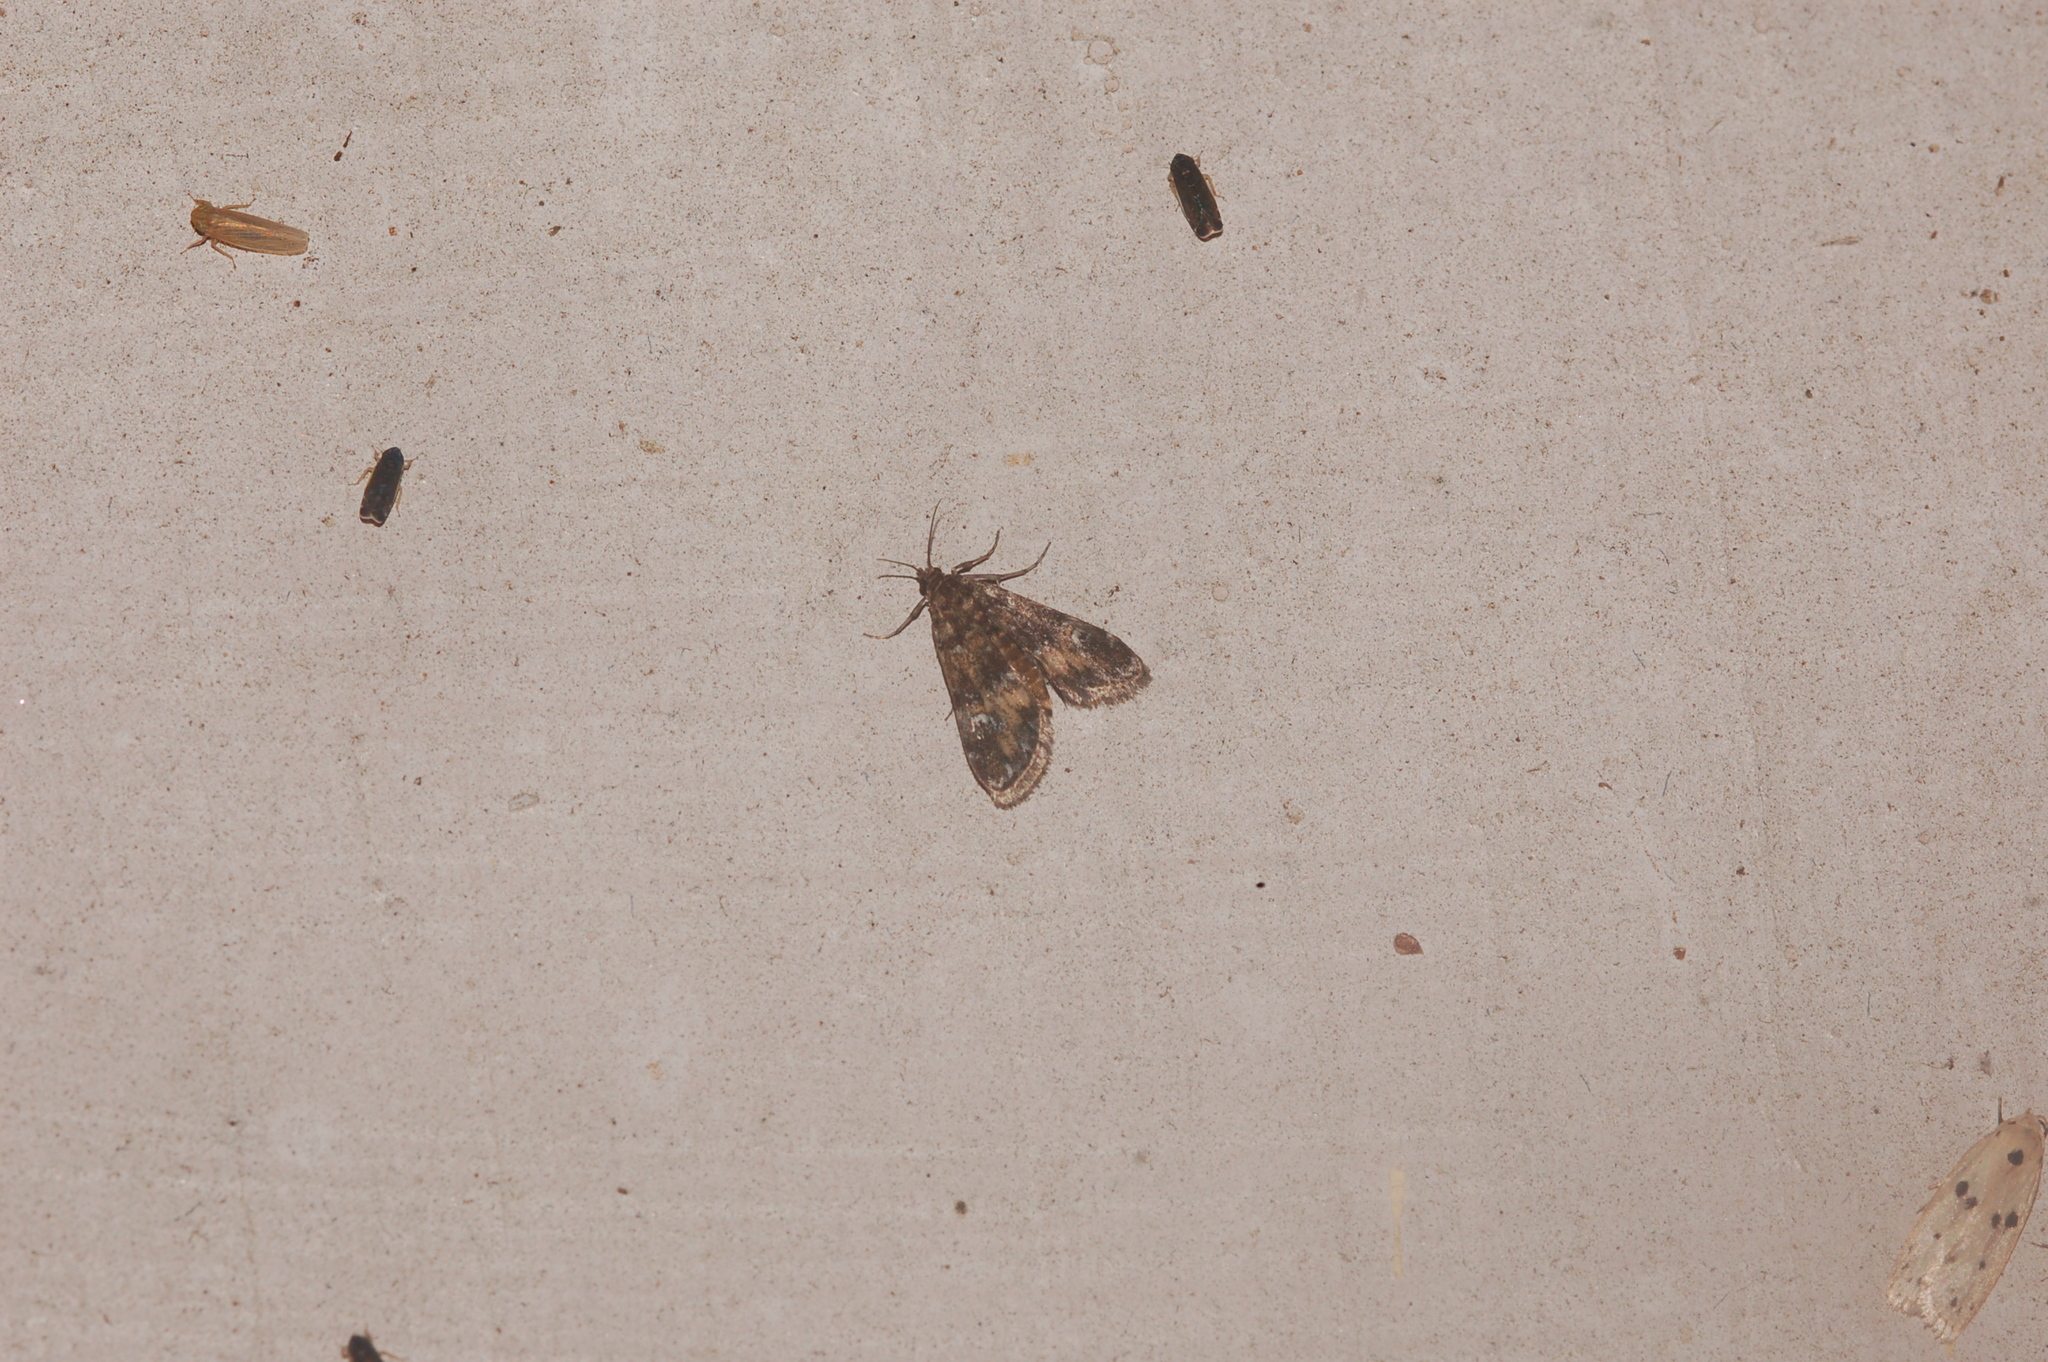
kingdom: Animalia
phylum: Arthropoda
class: Insecta
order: Lepidoptera
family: Crambidae
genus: Elophila
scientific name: Elophila obliteralis
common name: Waterlily leafcutter moth
